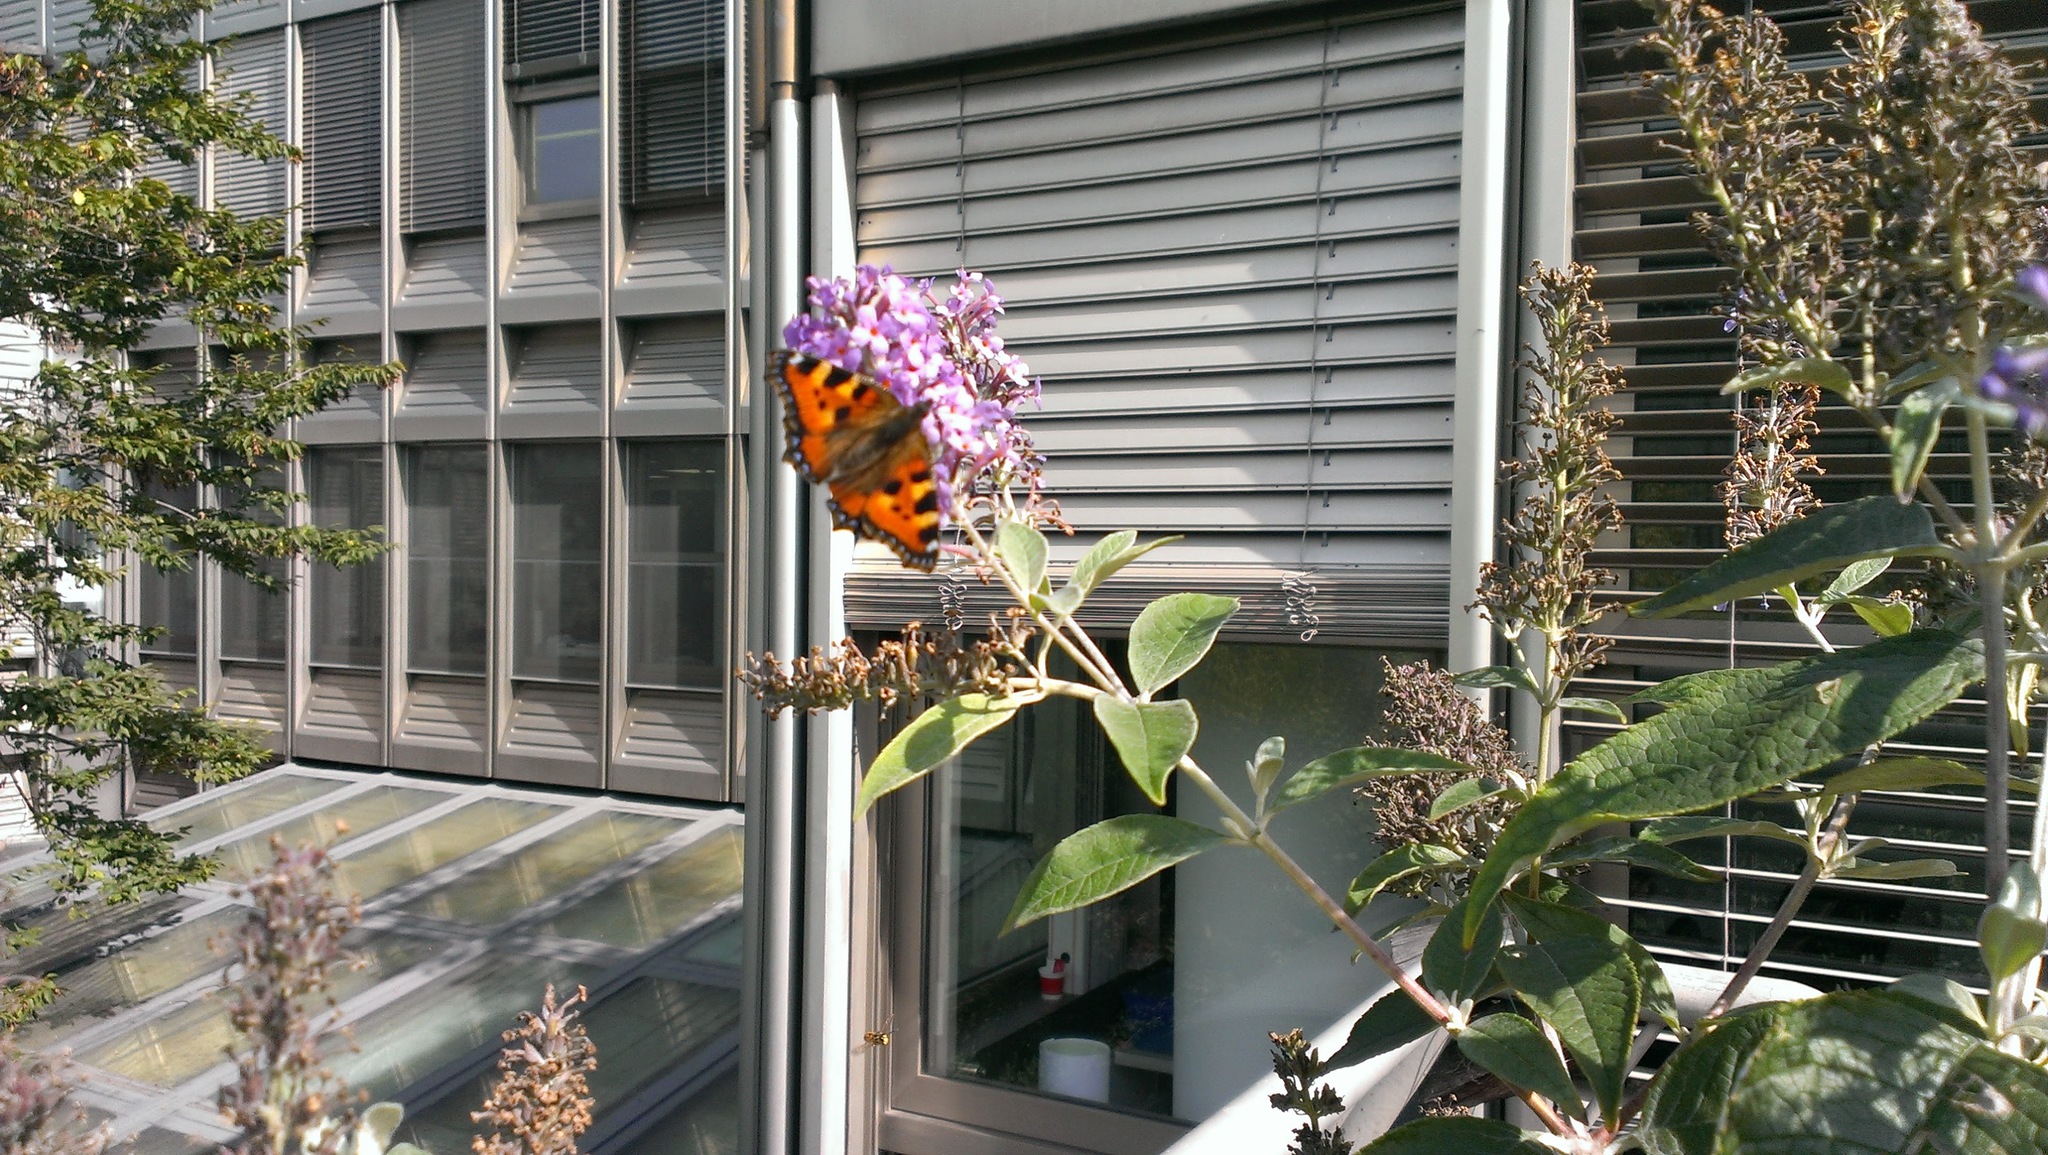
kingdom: Animalia
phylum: Arthropoda
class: Insecta
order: Lepidoptera
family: Nymphalidae
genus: Aglais
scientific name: Aglais urticae
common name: Small tortoiseshell
